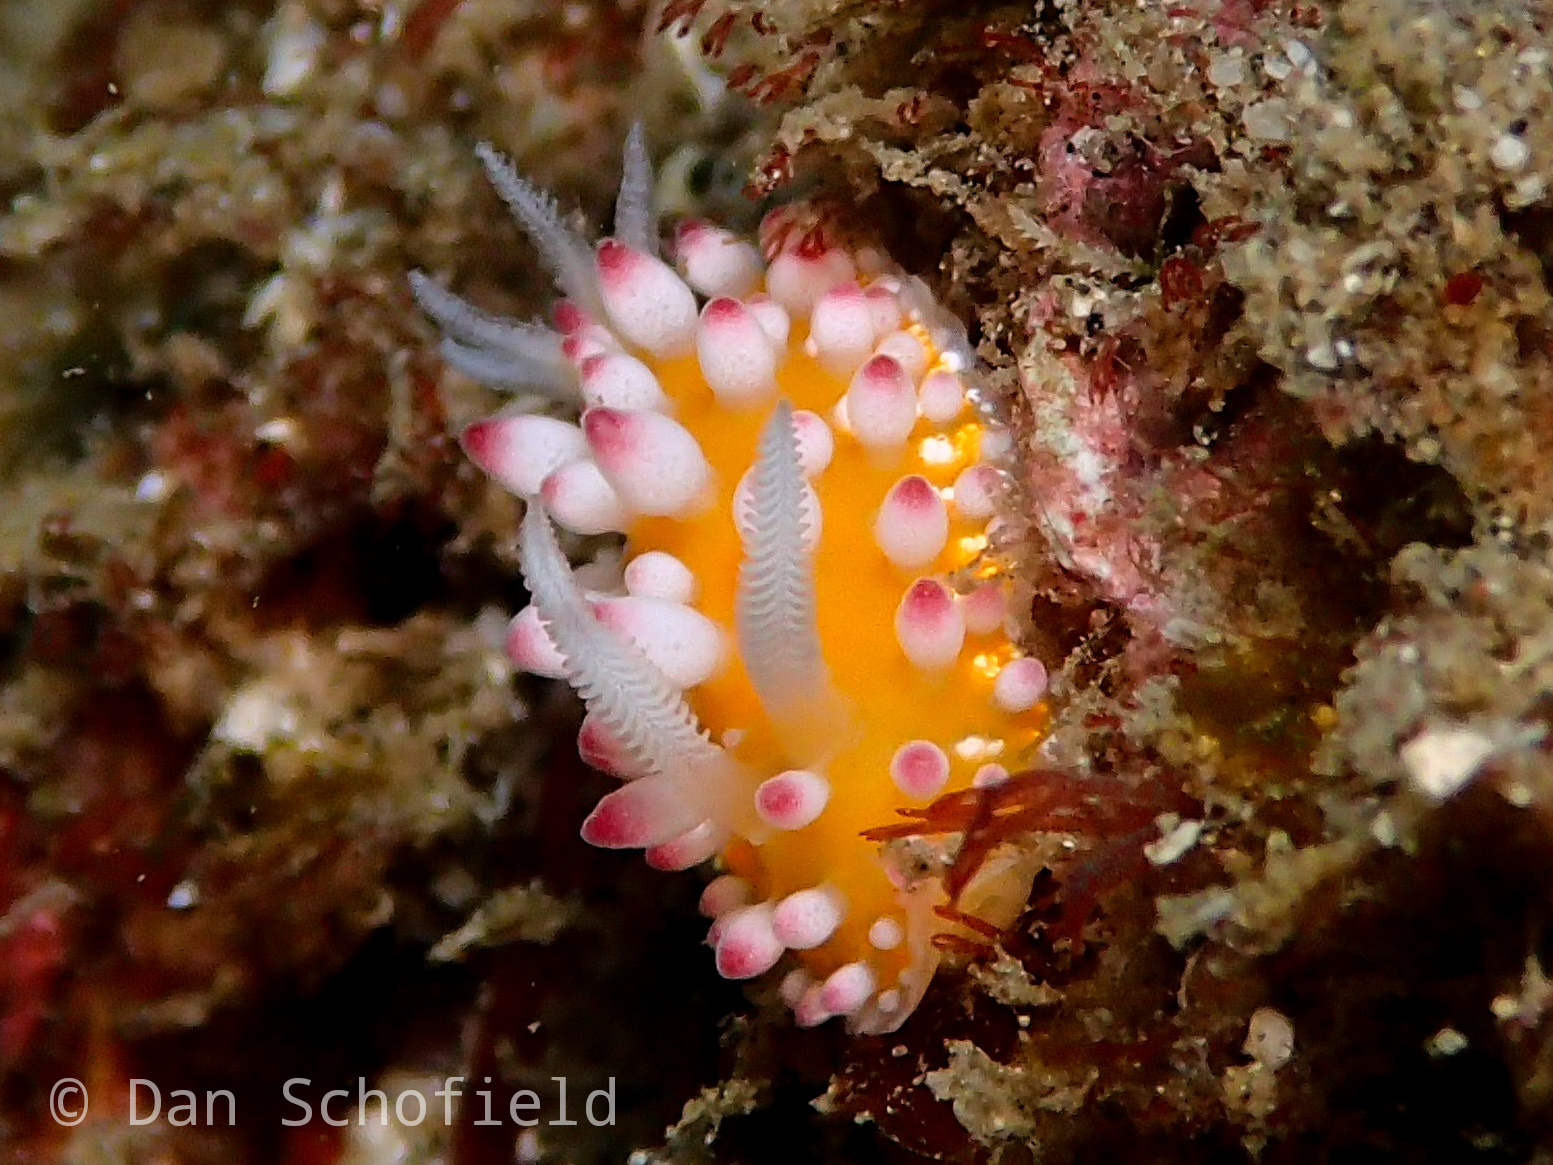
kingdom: Animalia
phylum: Mollusca
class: Gastropoda
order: Nudibranchia
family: Cadlinellidae
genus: Cadlinella
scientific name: Cadlinella ornatissima
